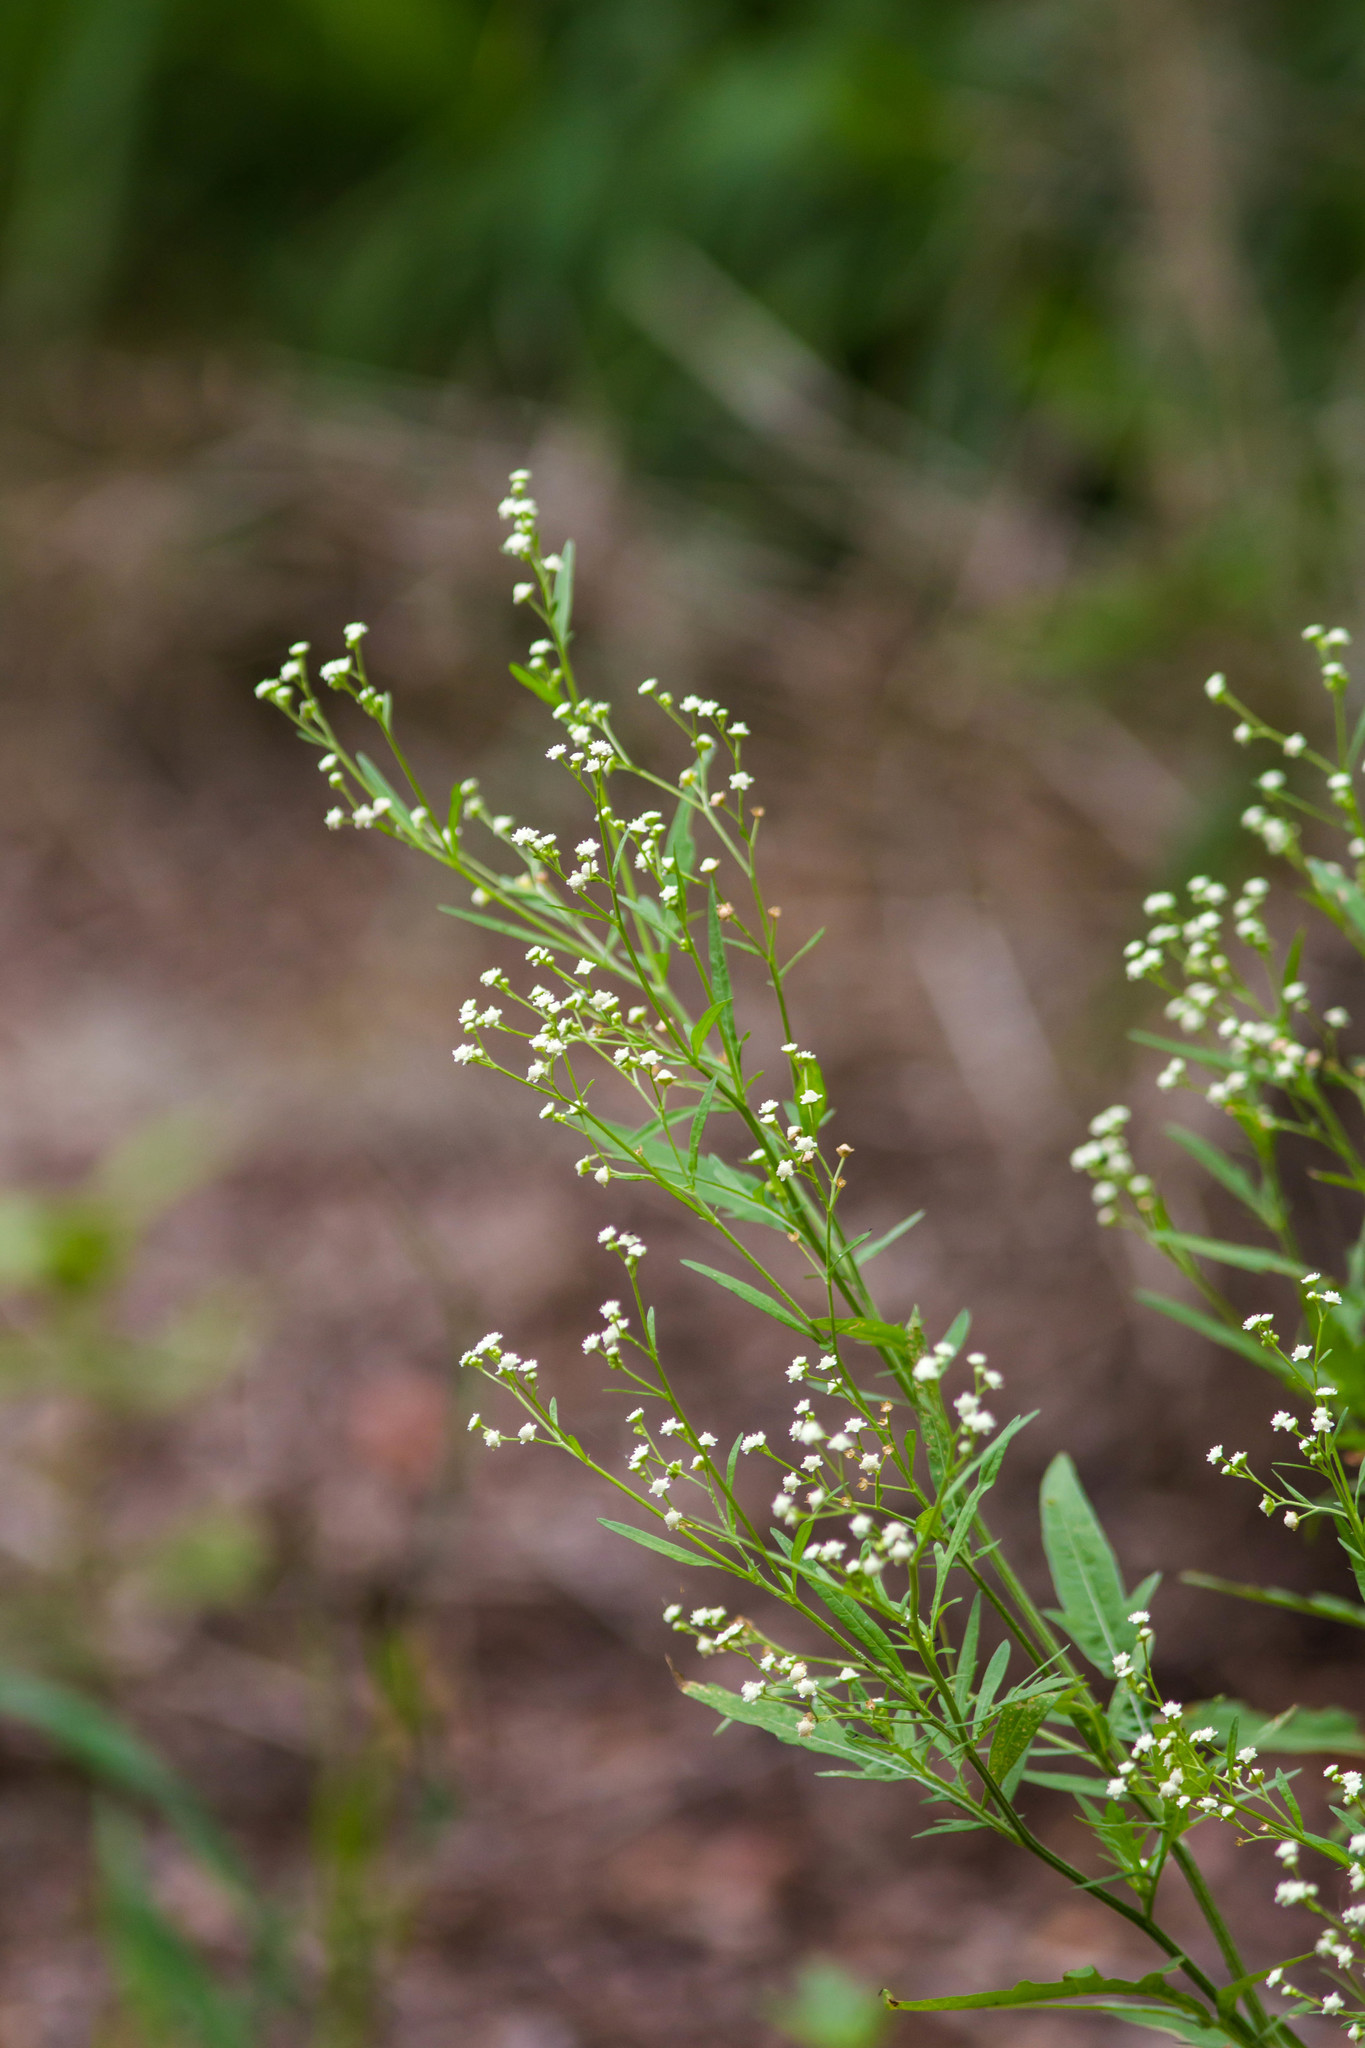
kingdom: Plantae
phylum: Tracheophyta
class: Magnoliopsida
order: Asterales
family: Asteraceae
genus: Parthenium
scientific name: Parthenium hysterophorus
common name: Santa maria feverfew
